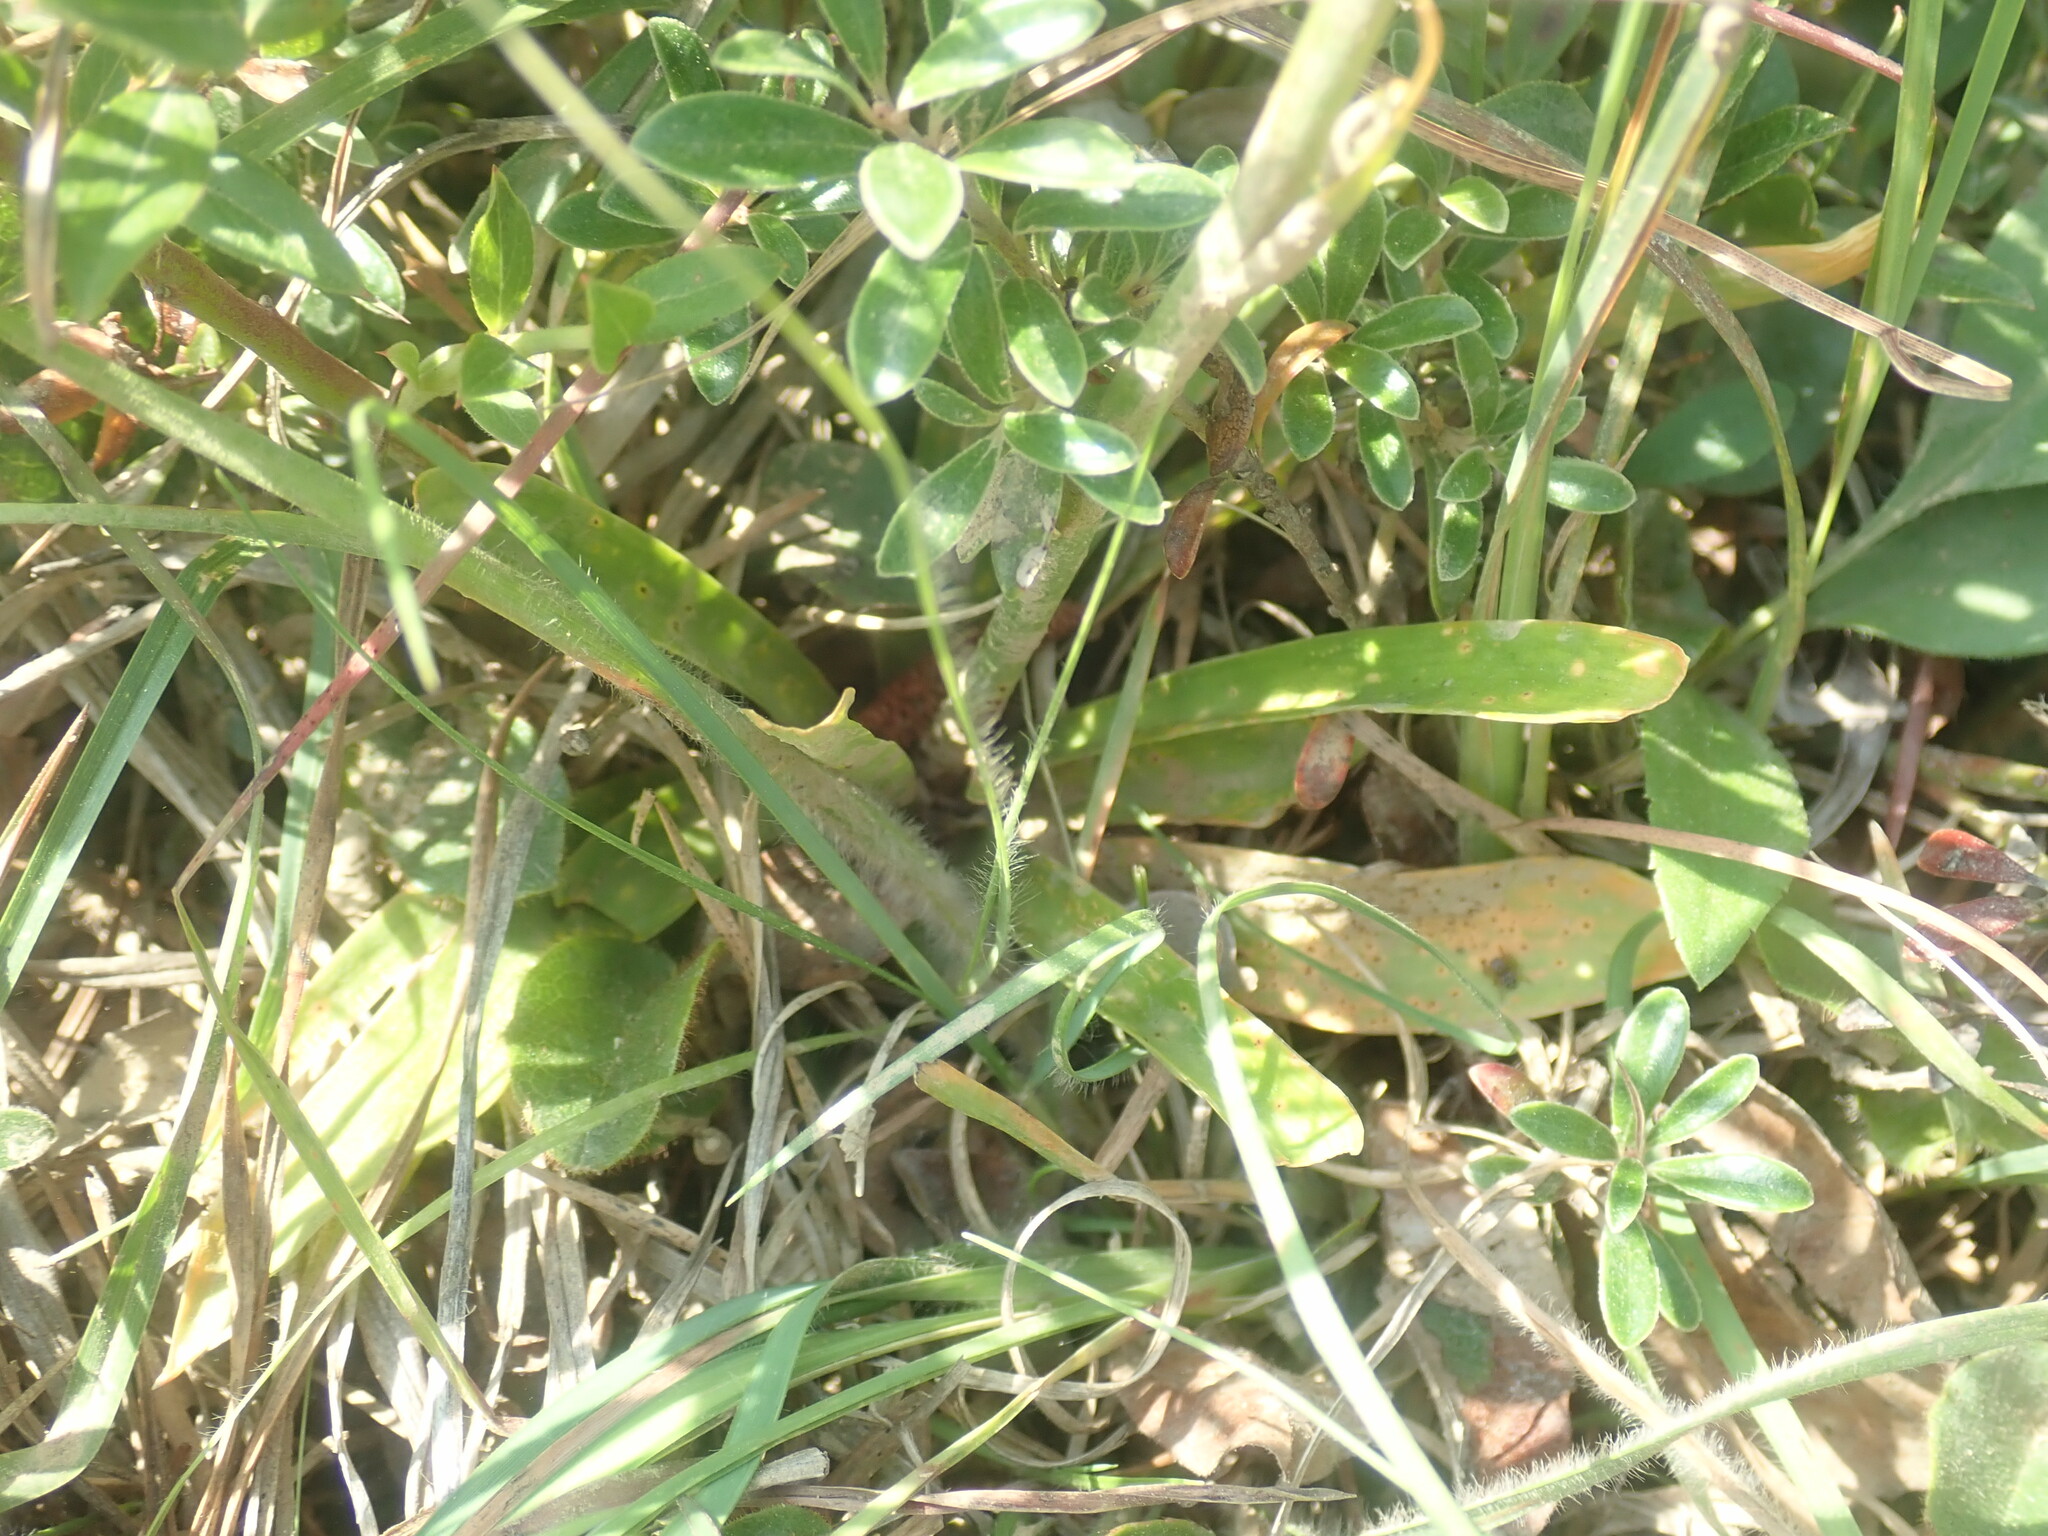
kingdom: Plantae
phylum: Tracheophyta
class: Liliopsida
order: Dioscoreales
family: Nartheciaceae
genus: Aletris
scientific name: Aletris farinosa
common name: Colicroot
